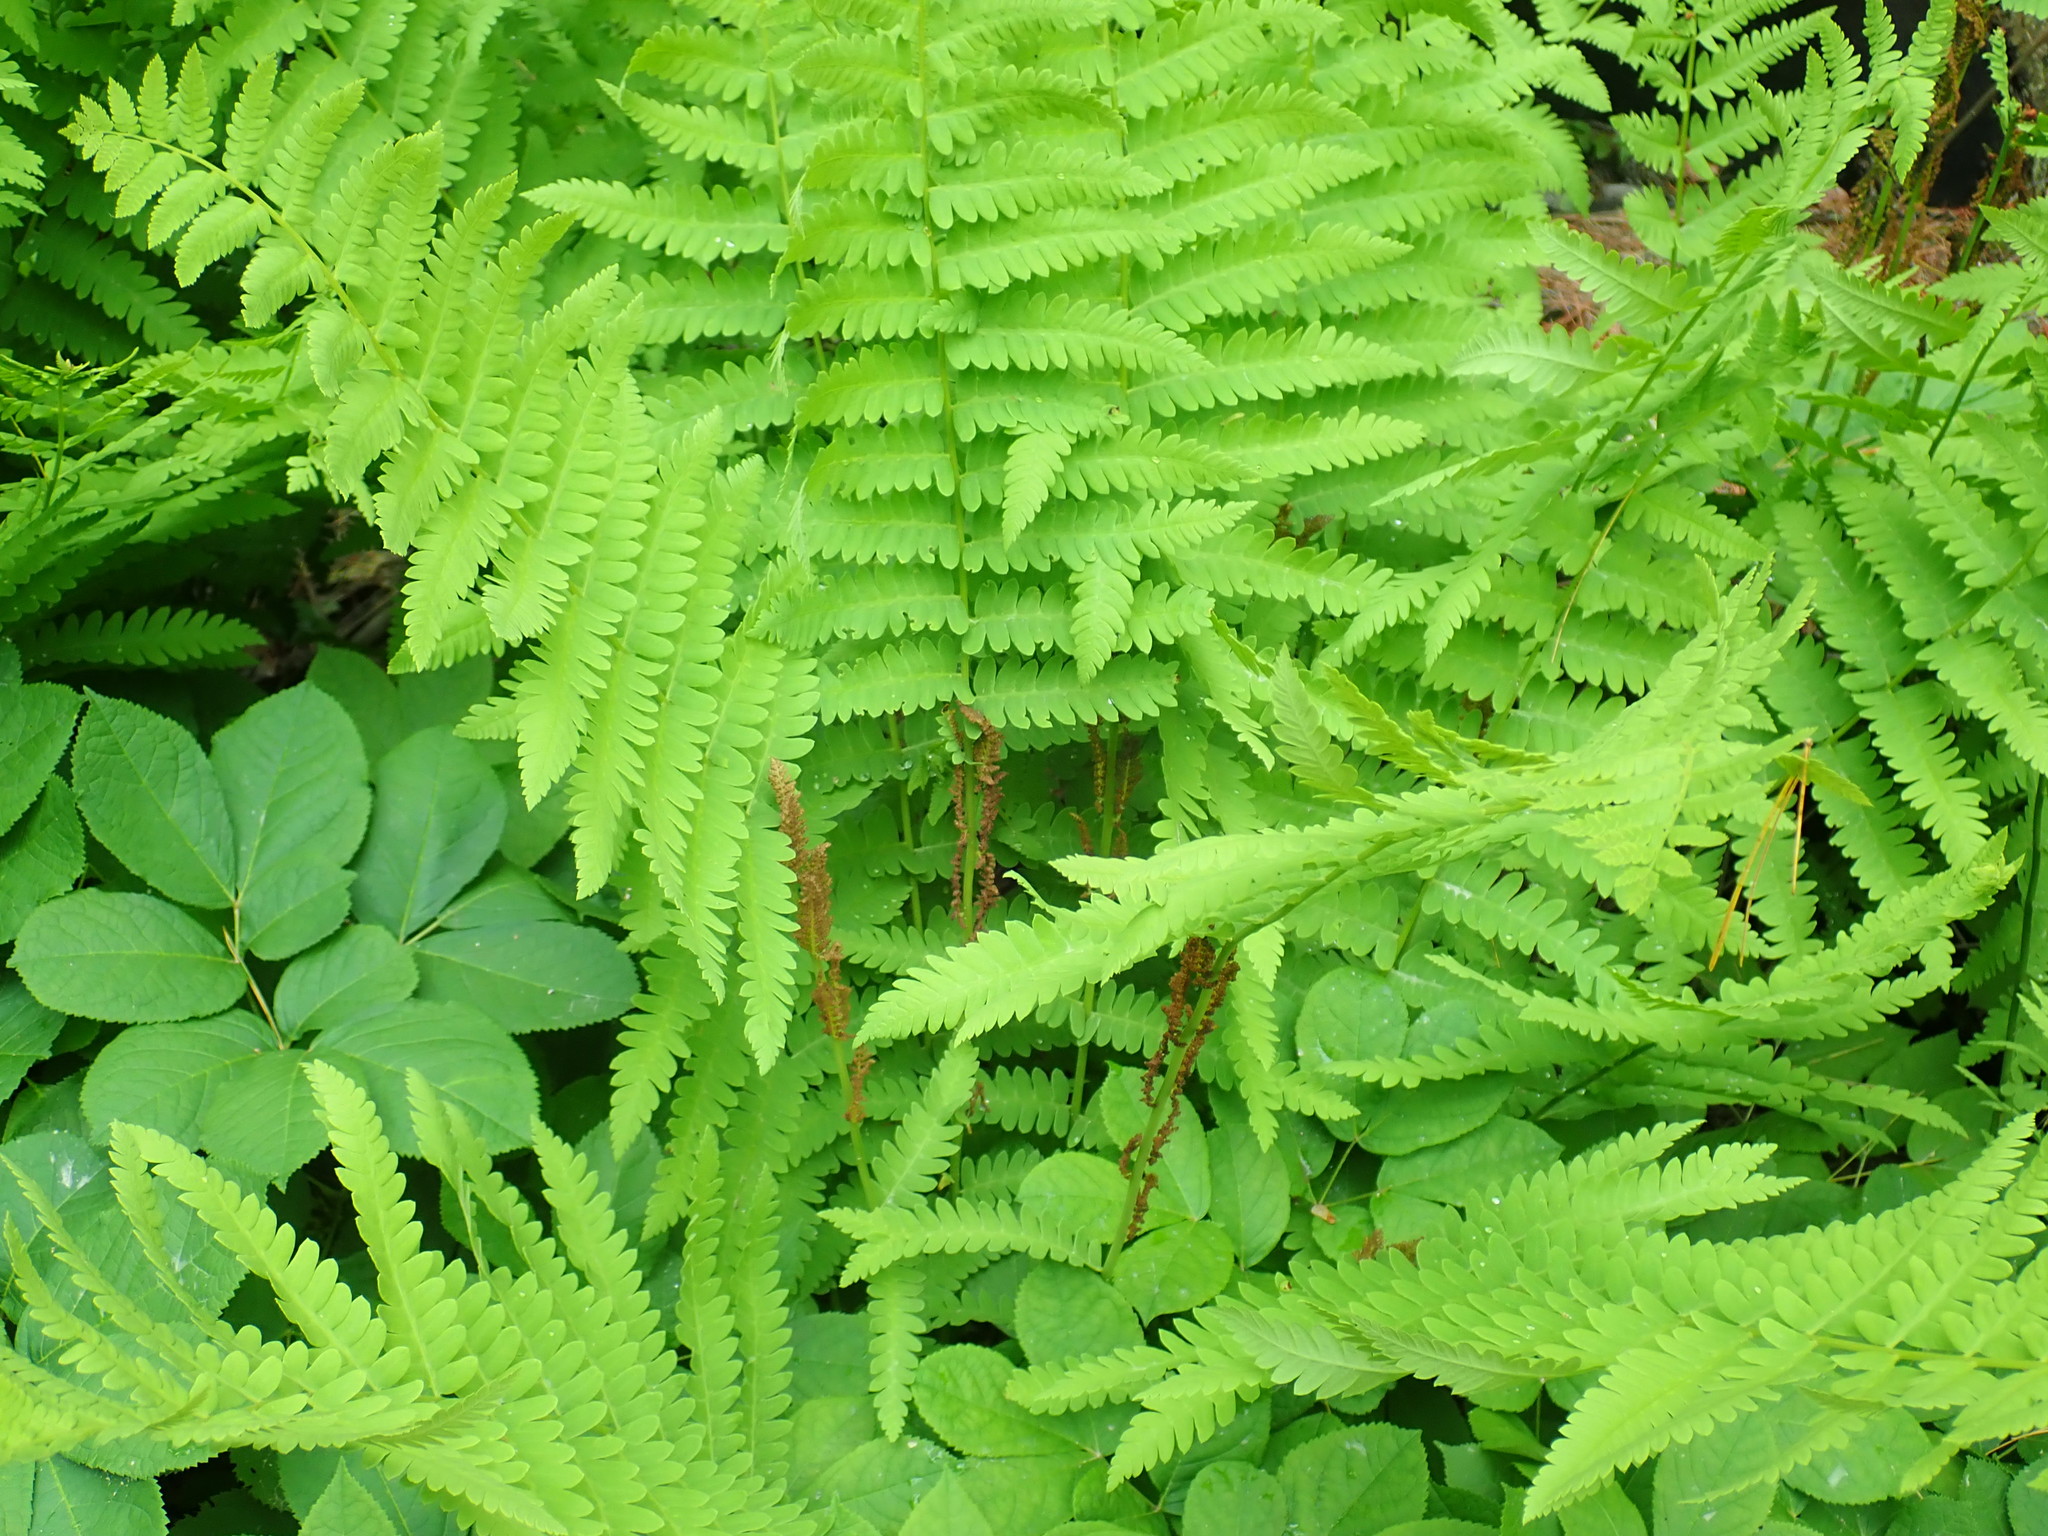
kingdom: Plantae
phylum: Tracheophyta
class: Polypodiopsida
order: Osmundales
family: Osmundaceae
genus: Claytosmunda
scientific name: Claytosmunda claytoniana
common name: Clayton's fern
